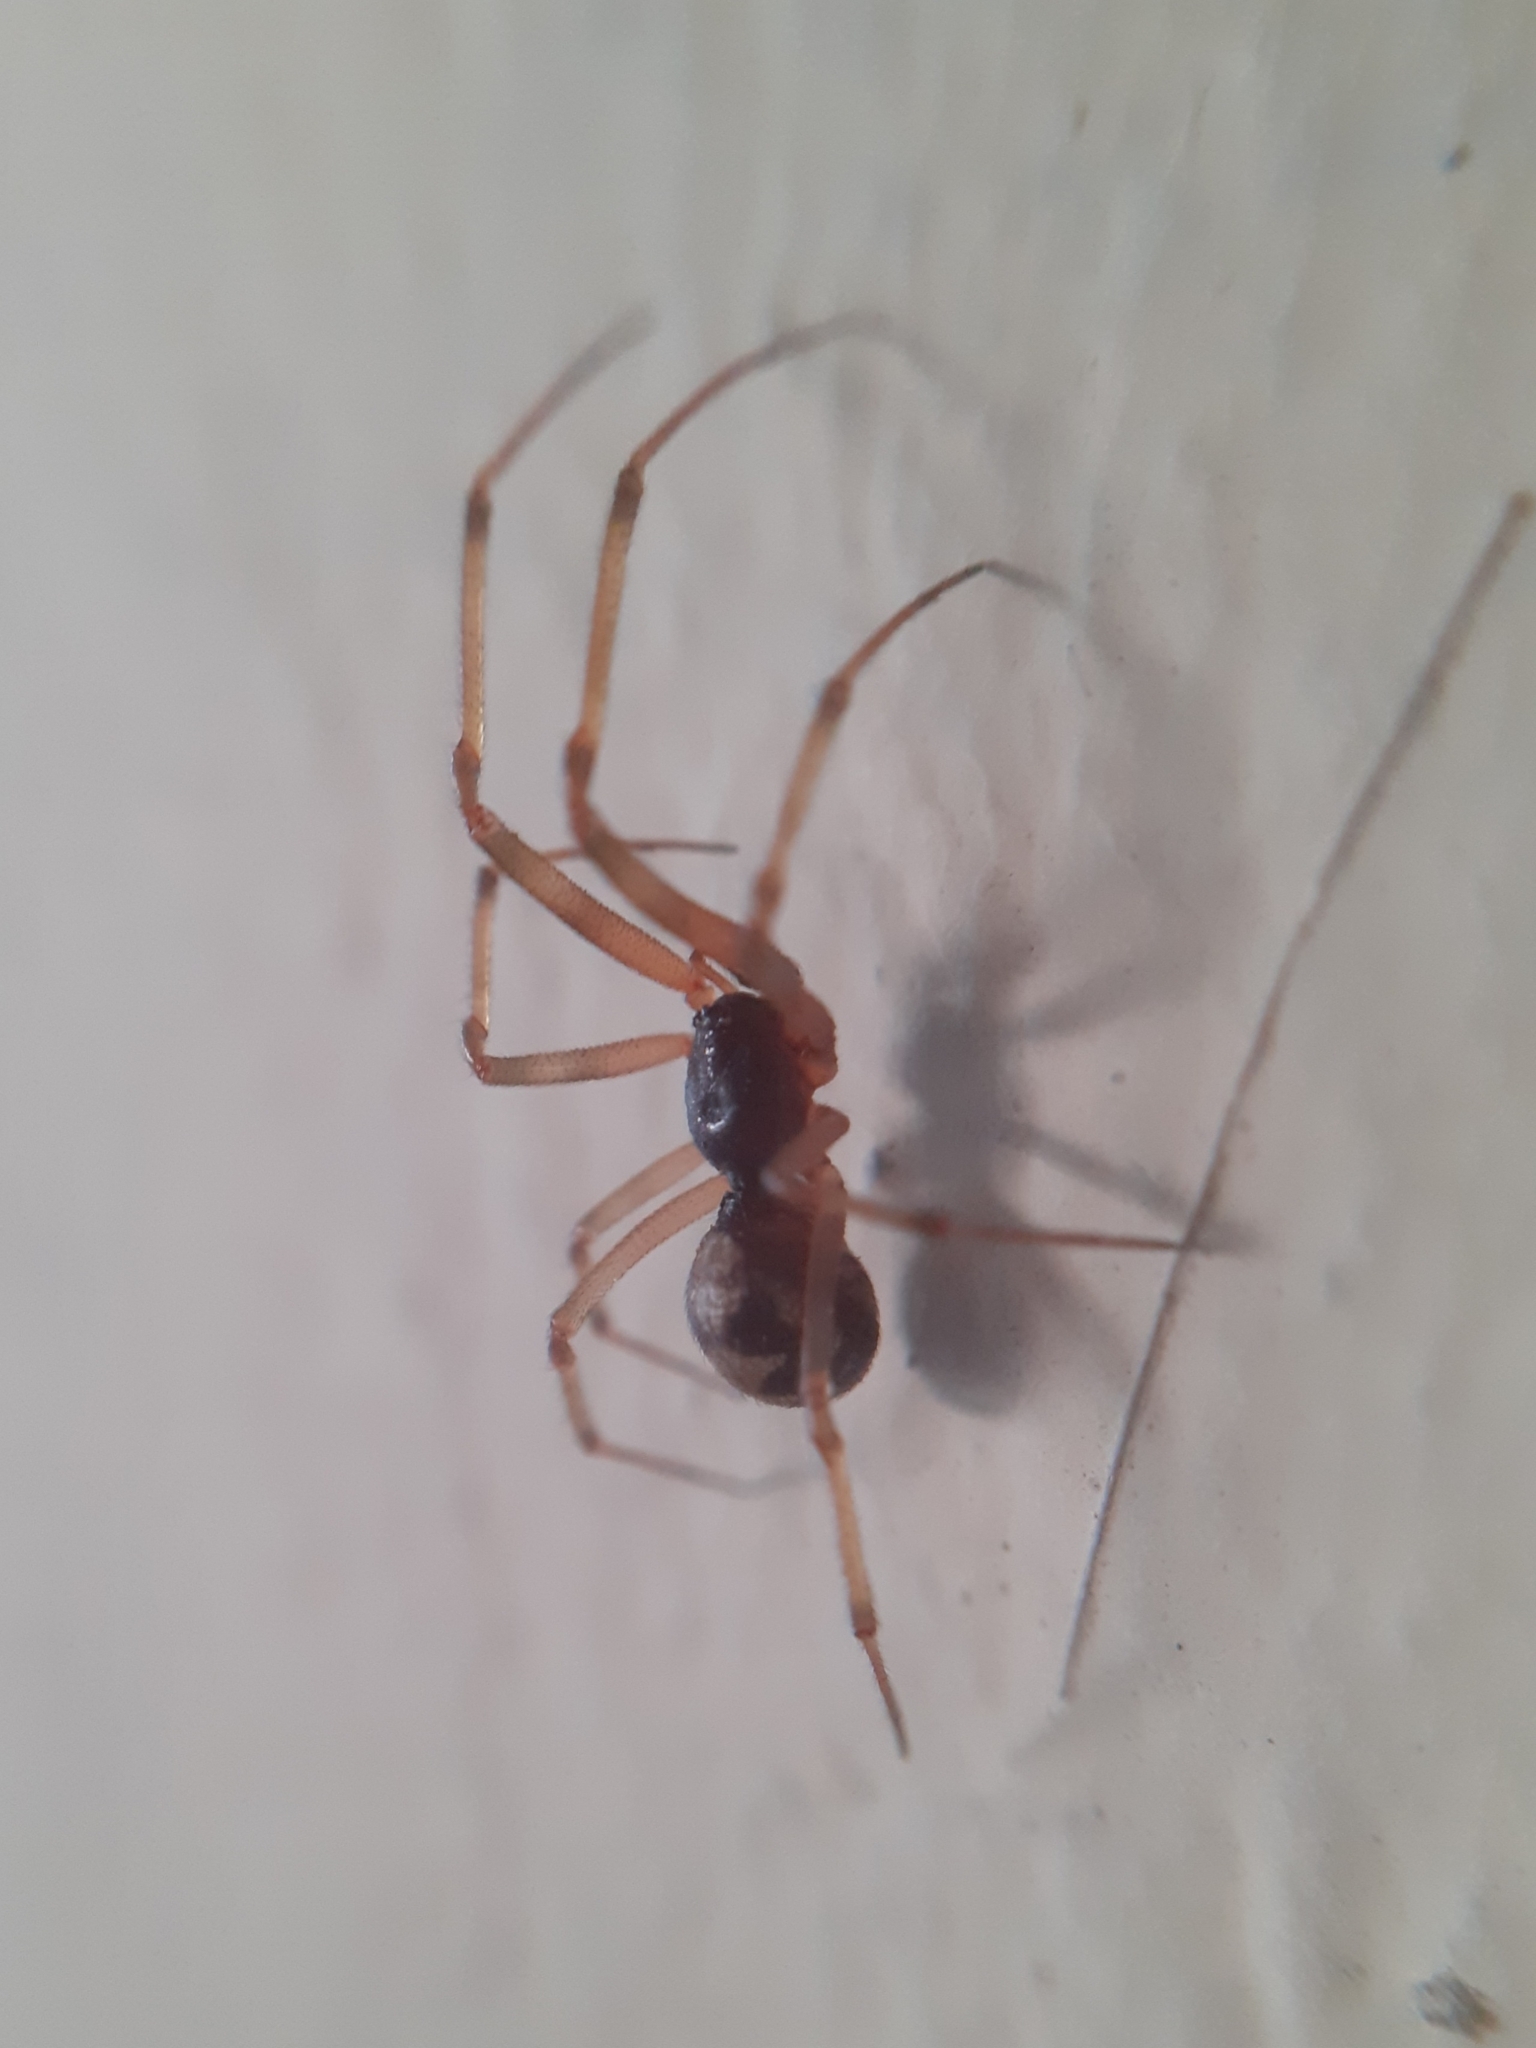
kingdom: Animalia
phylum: Arthropoda
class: Arachnida
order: Araneae
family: Theridiidae
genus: Steatoda
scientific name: Steatoda triangulosa
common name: Triangulate bud spider
